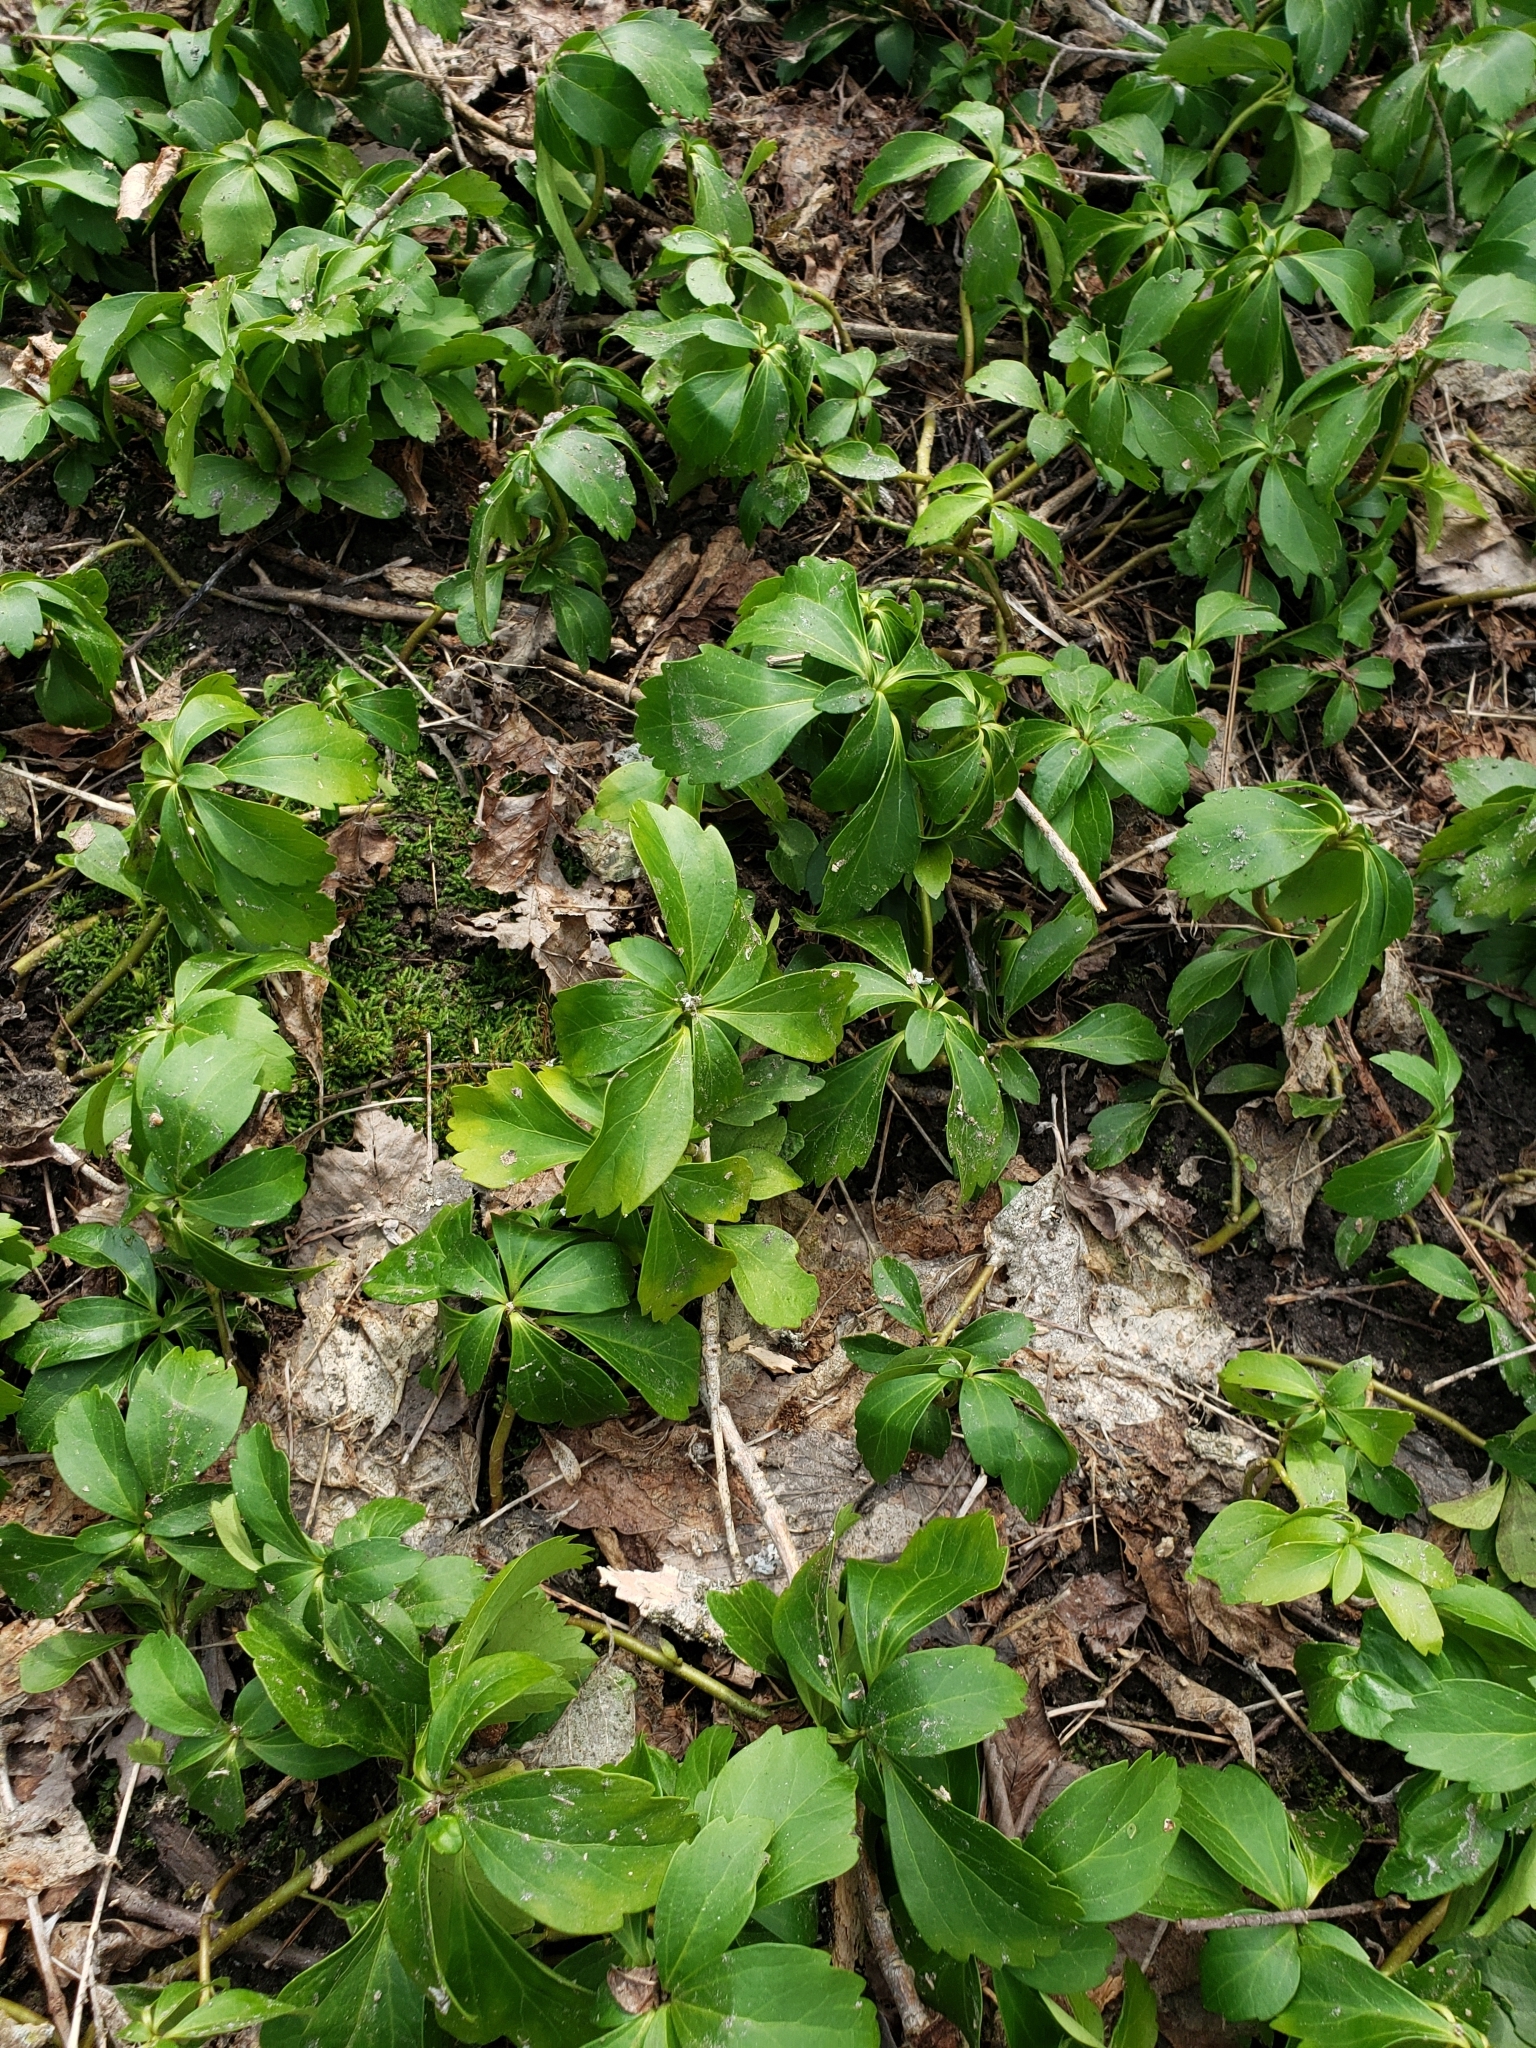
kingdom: Plantae
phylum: Tracheophyta
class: Magnoliopsida
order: Buxales
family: Buxaceae
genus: Pachysandra
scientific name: Pachysandra terminalis
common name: Japanese pachysandra
